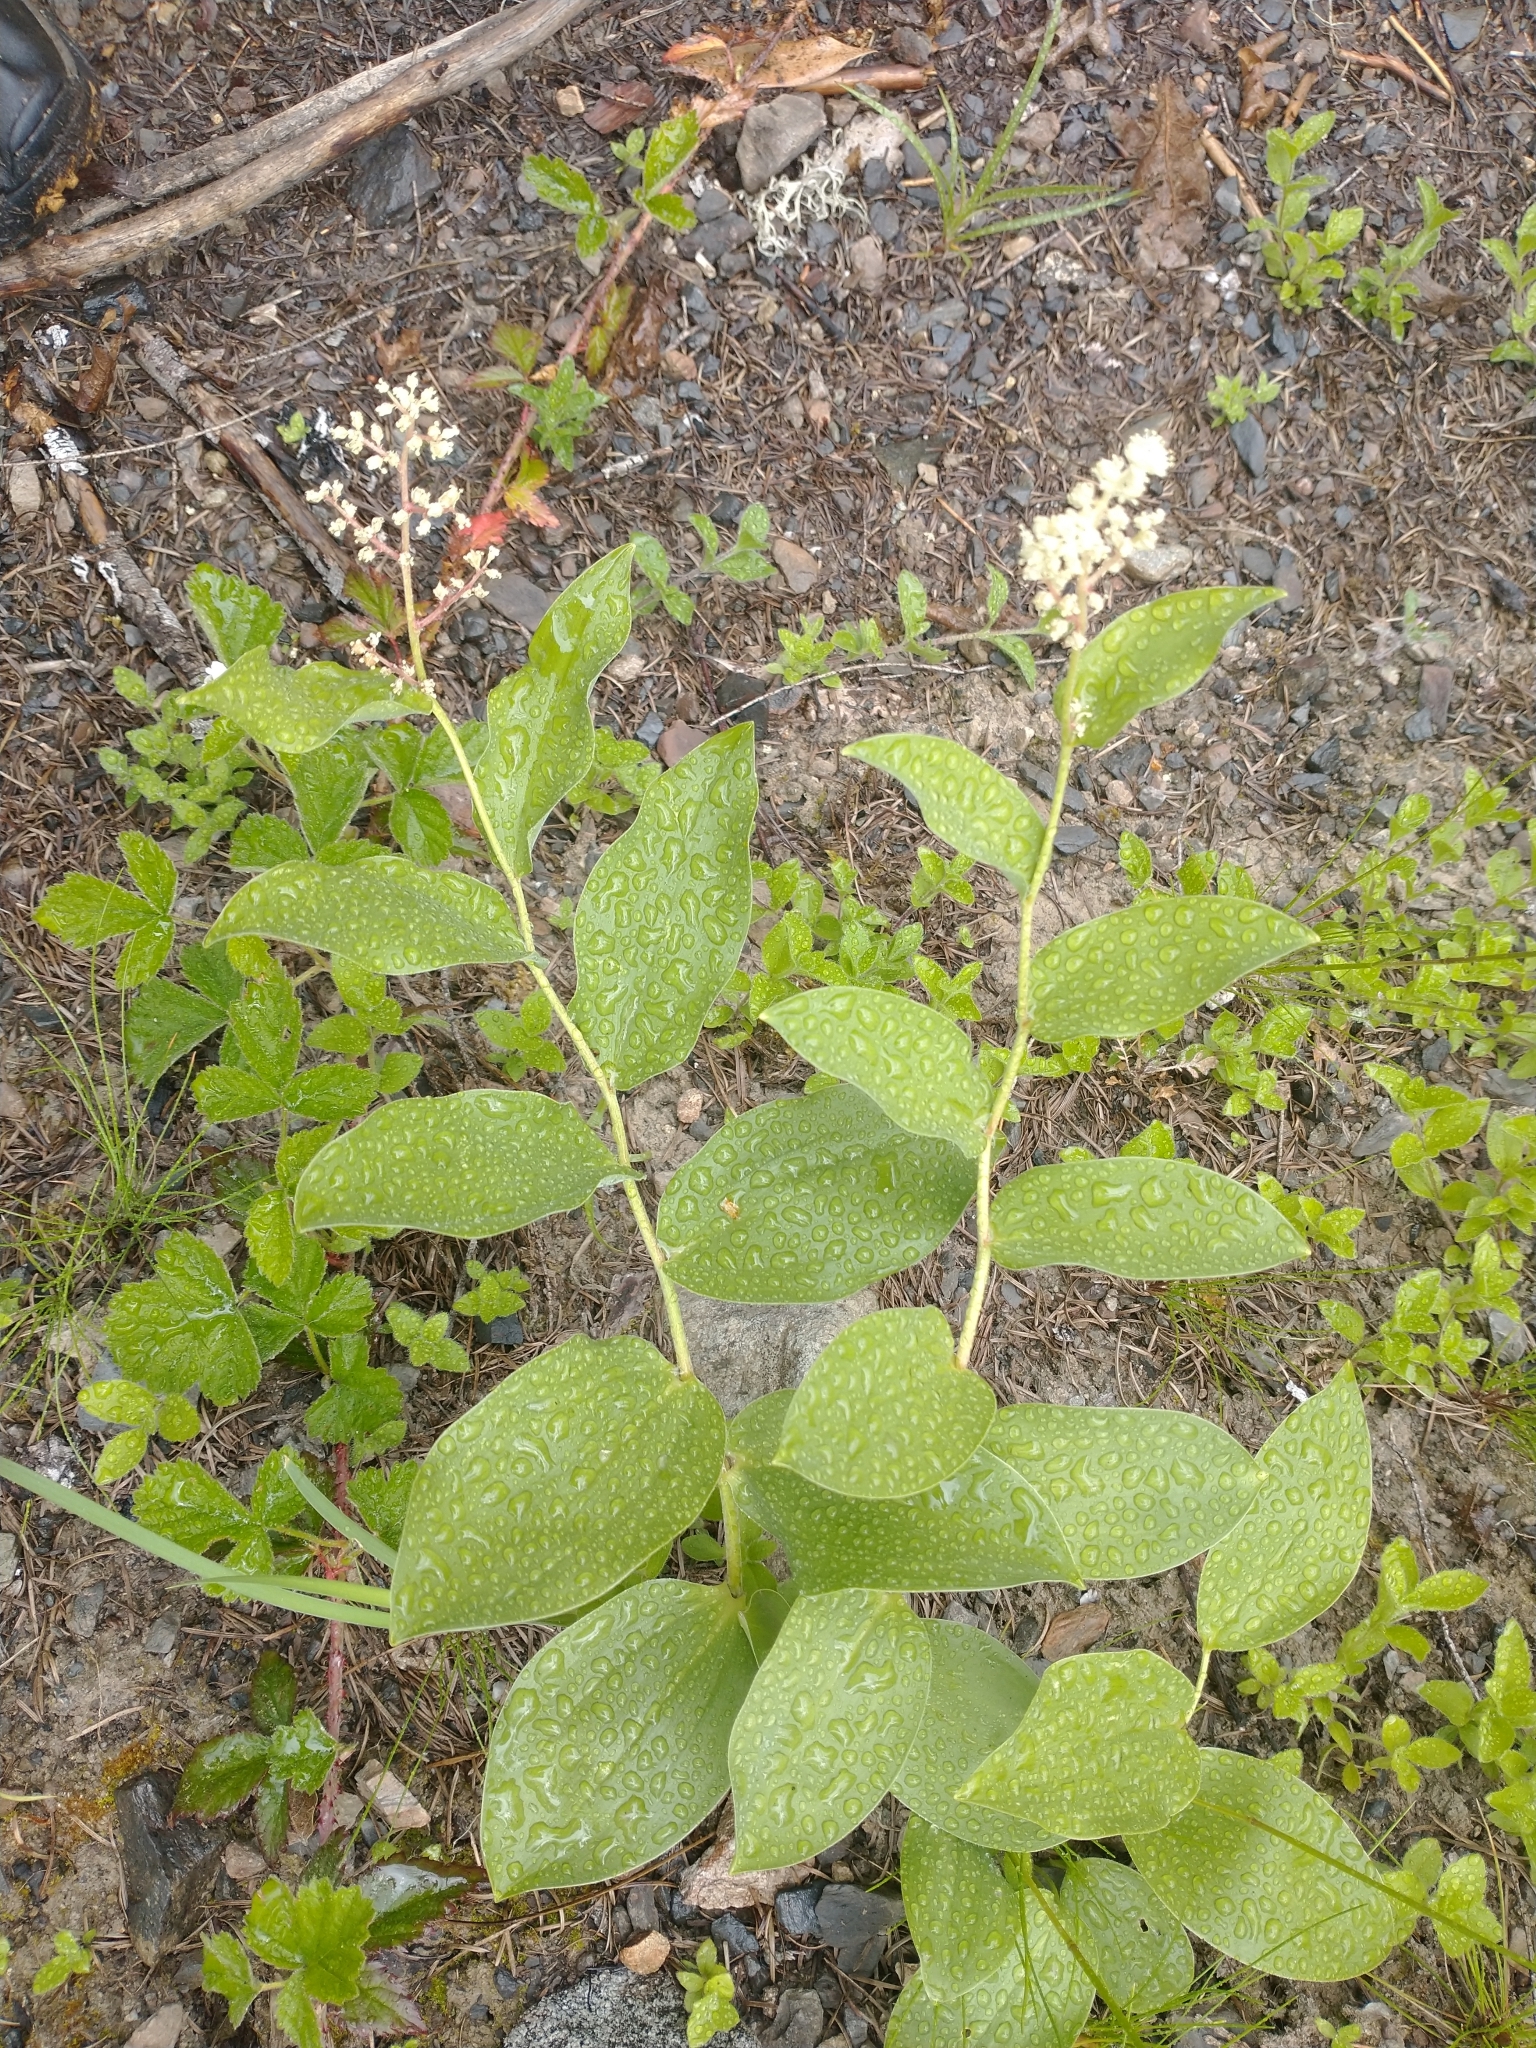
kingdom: Plantae
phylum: Tracheophyta
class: Liliopsida
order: Asparagales
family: Asparagaceae
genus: Maianthemum
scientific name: Maianthemum racemosum
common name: False spikenard
